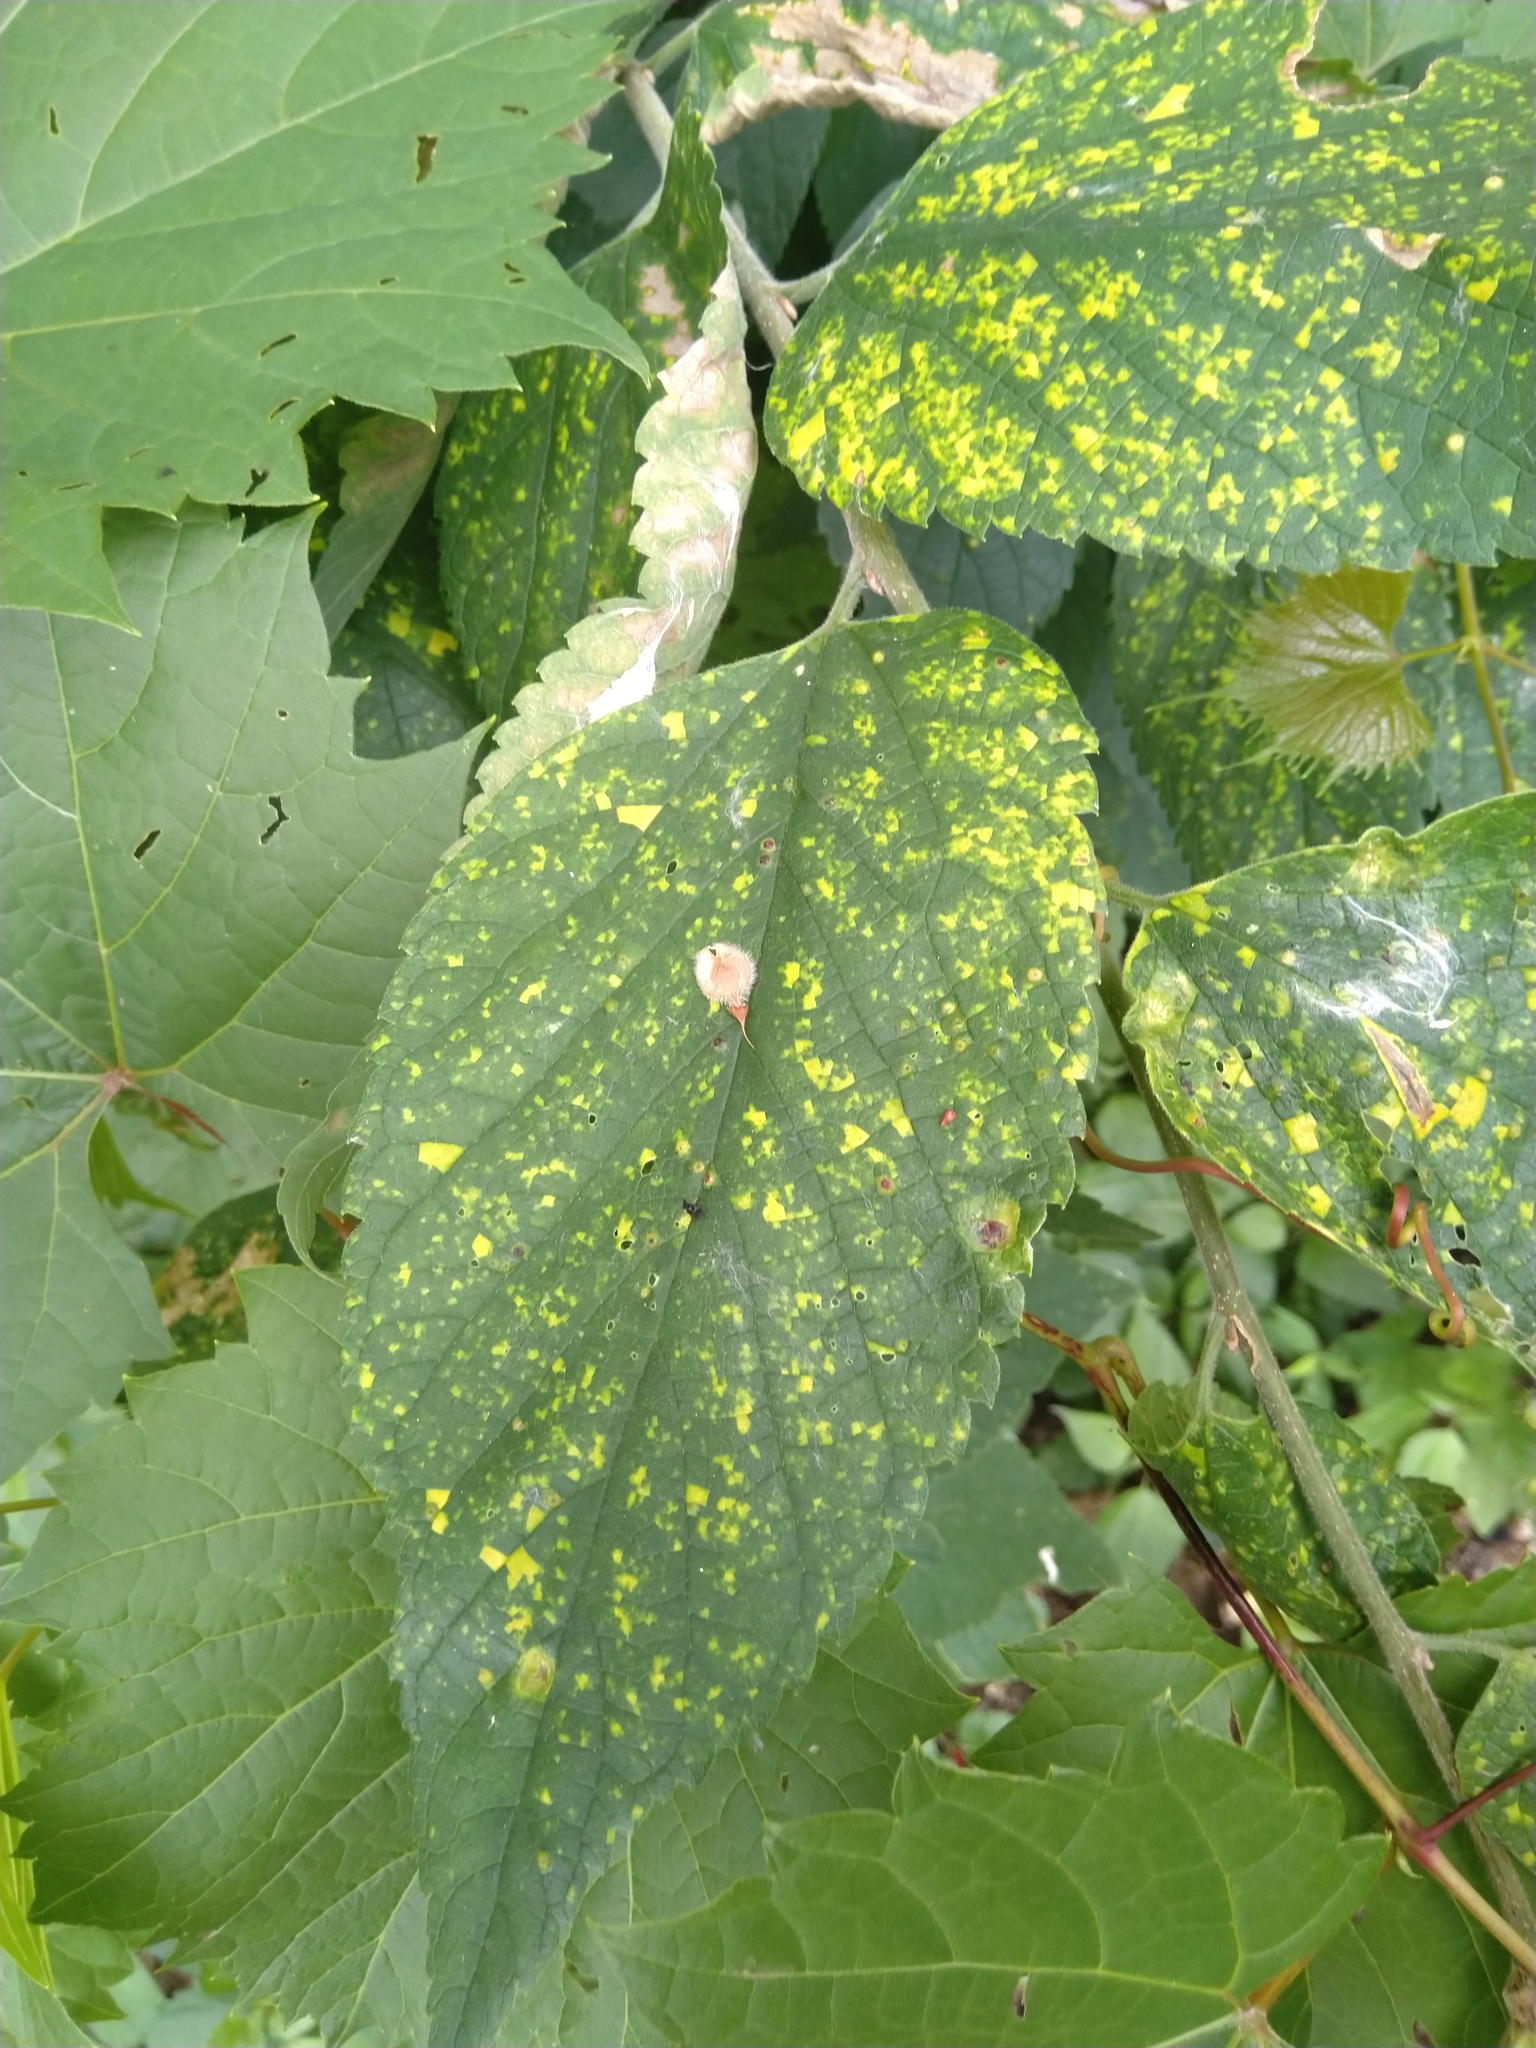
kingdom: Viruses
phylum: Kitrinoviricota
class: Alsuviricetes
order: Martellivirales
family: Closteroviridae
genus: Ampelovirus
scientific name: Ampelovirus
